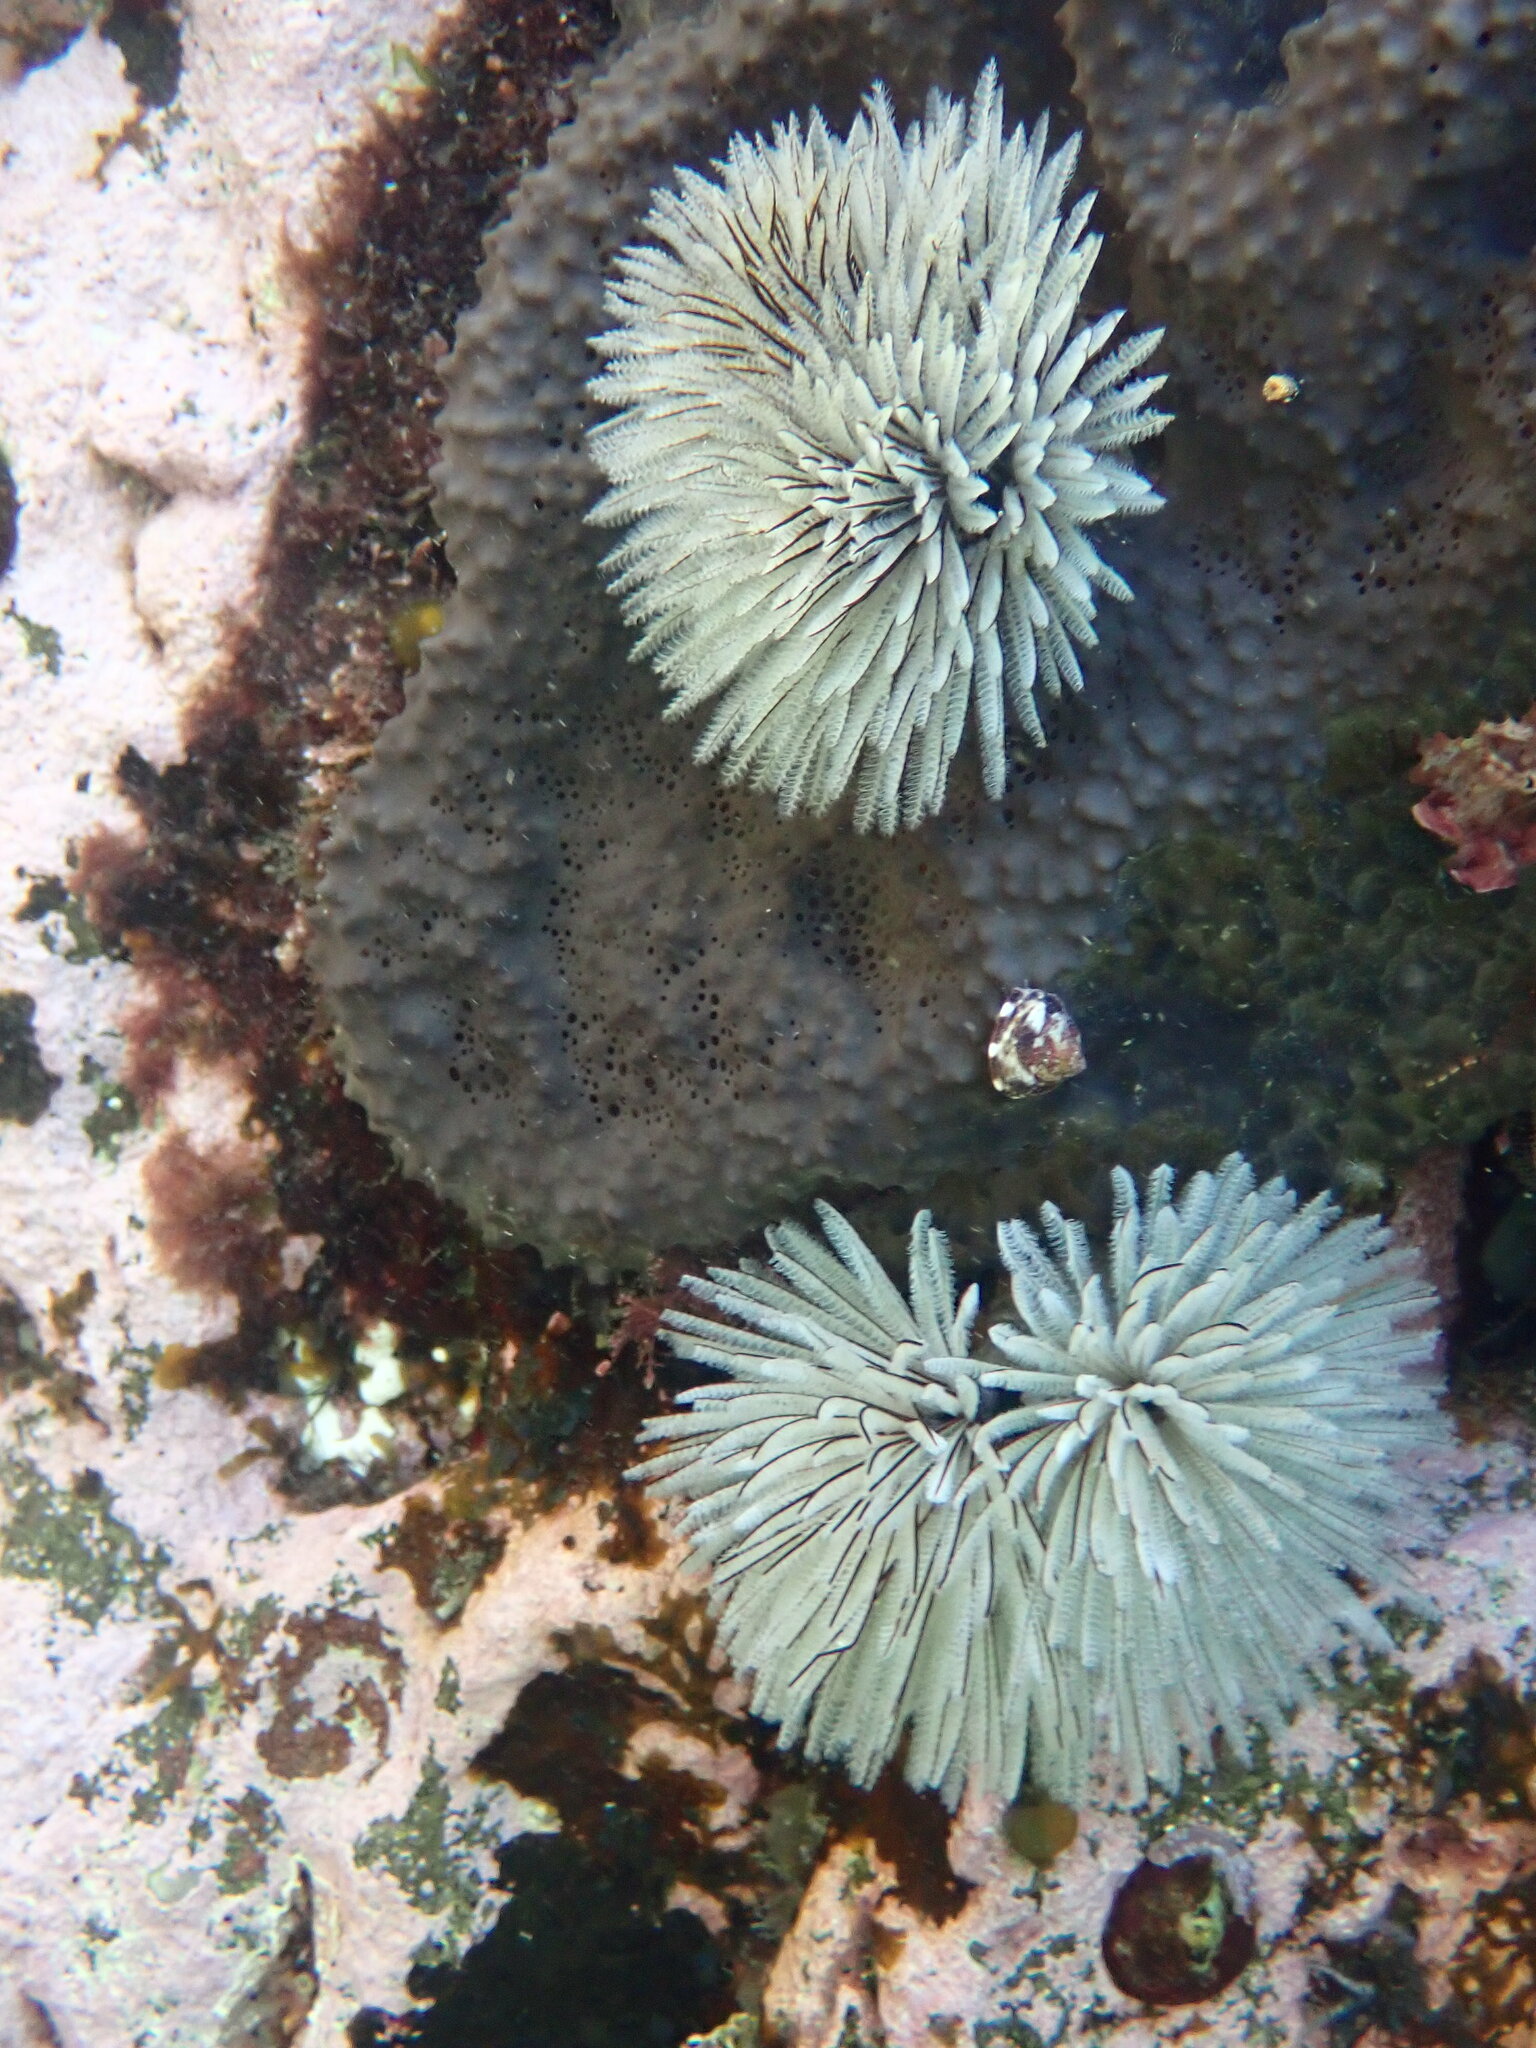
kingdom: Animalia
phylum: Annelida
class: Polychaeta
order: Sabellida
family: Sabellidae
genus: Sabellastarte
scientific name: Sabellastarte australiensis
